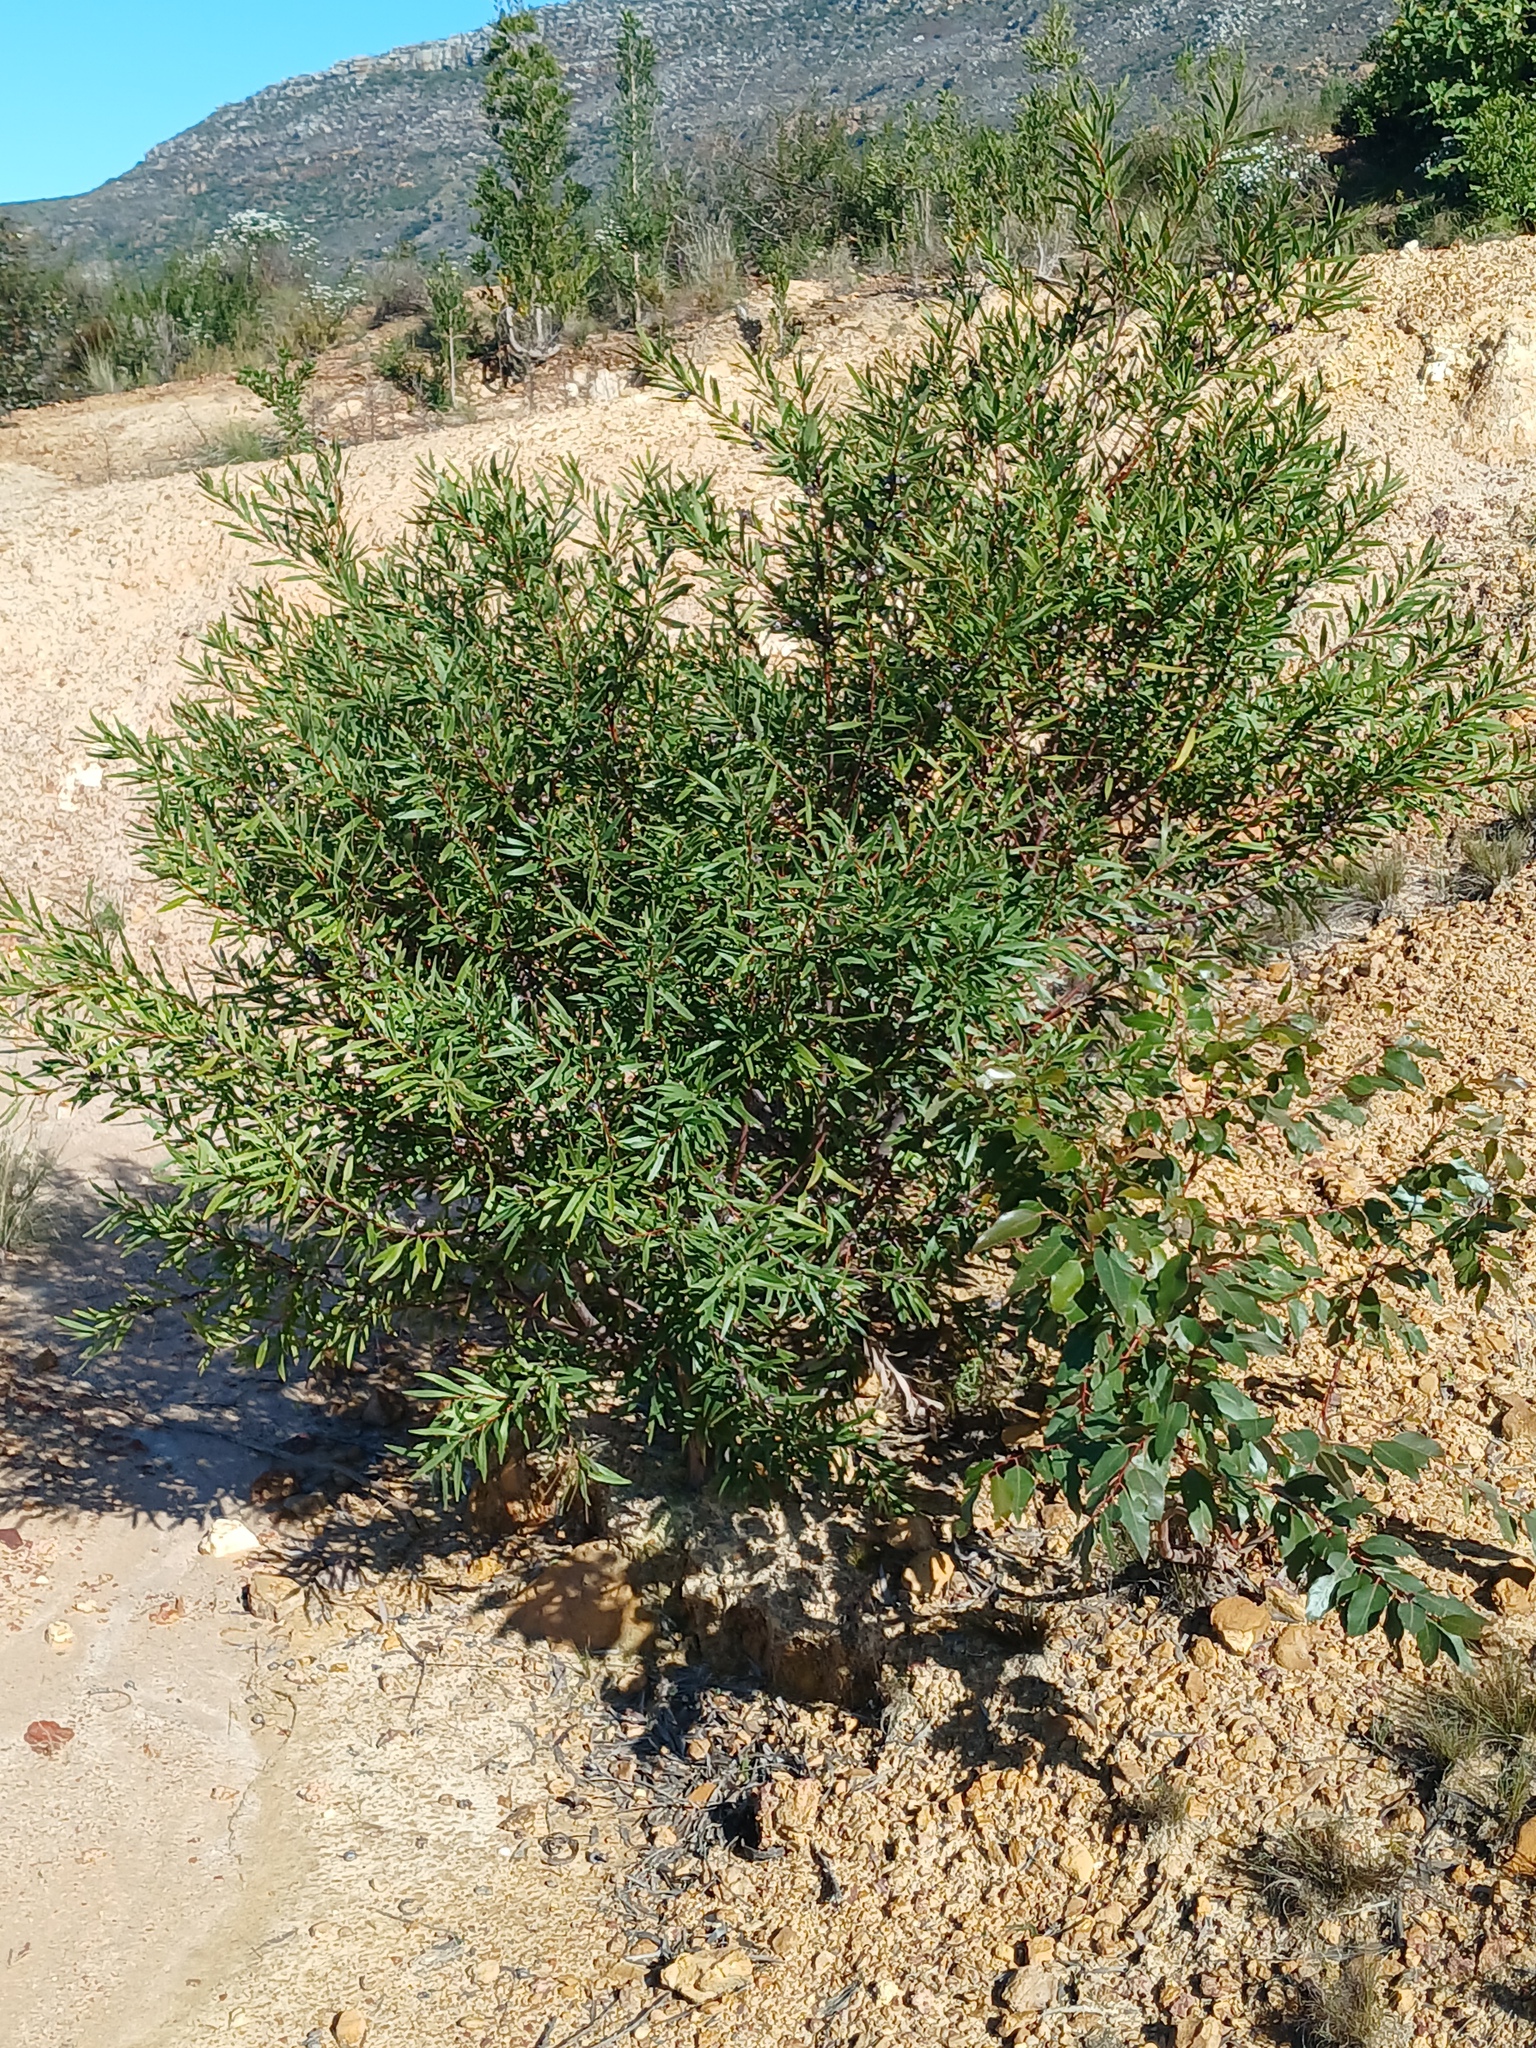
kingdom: Plantae
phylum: Tracheophyta
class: Magnoliopsida
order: Fabales
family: Fabaceae
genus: Acacia
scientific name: Acacia longifolia
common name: Sydney golden wattle
